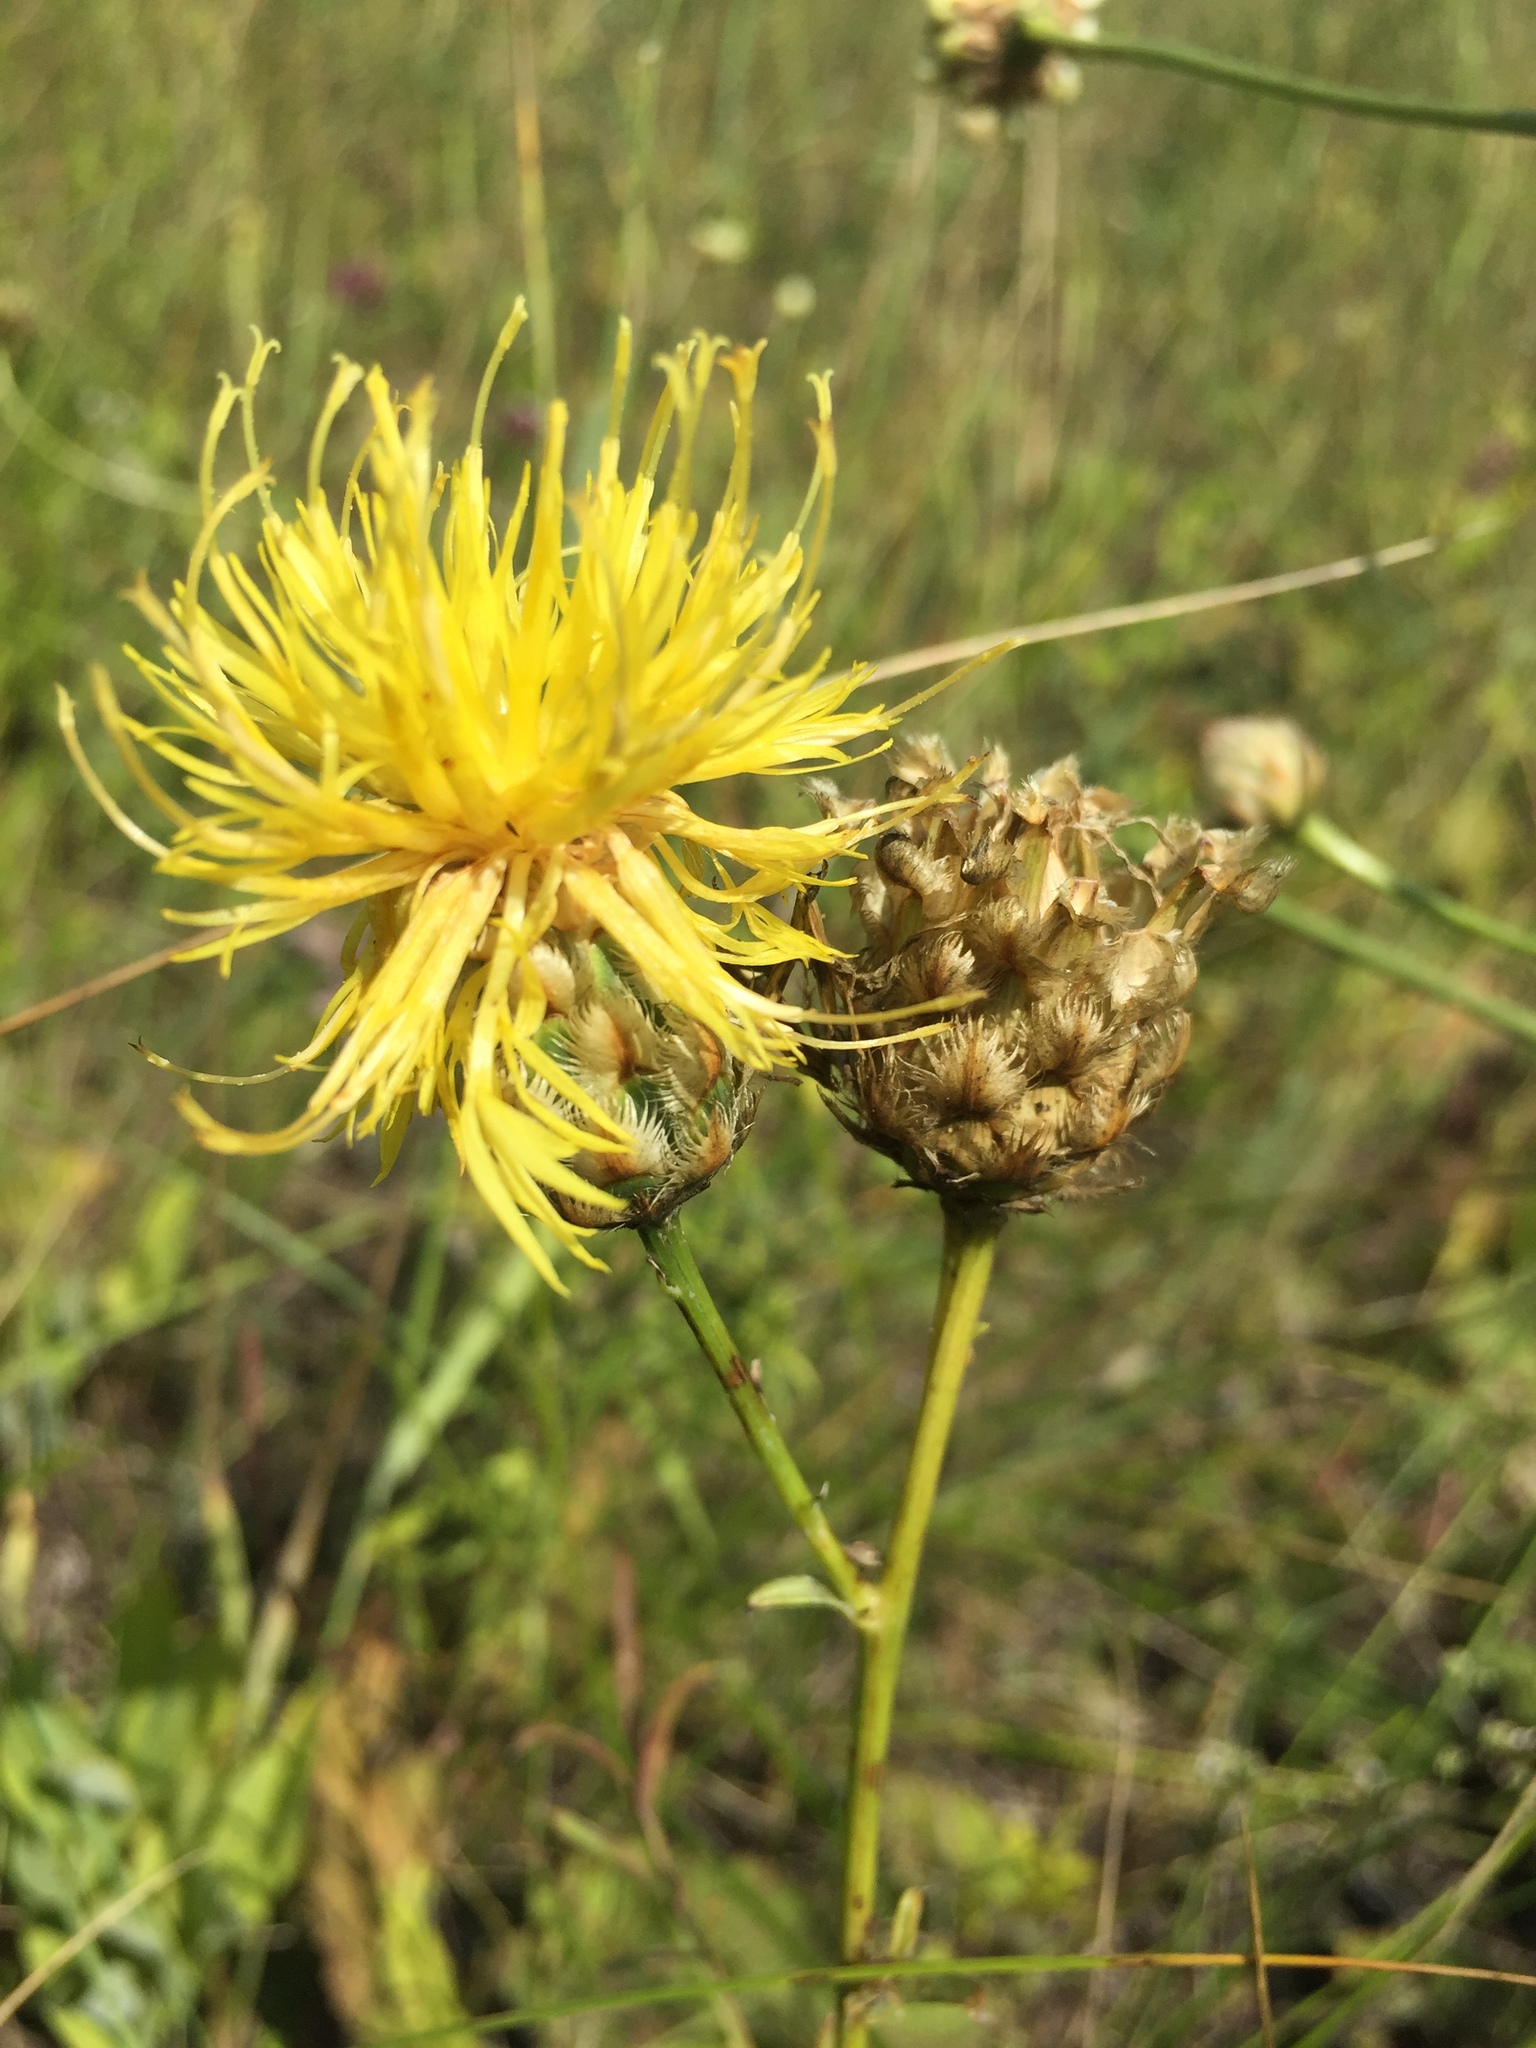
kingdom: Plantae
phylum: Tracheophyta
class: Magnoliopsida
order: Asterales
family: Asteraceae
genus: Centaurea
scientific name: Centaurea orientalis
